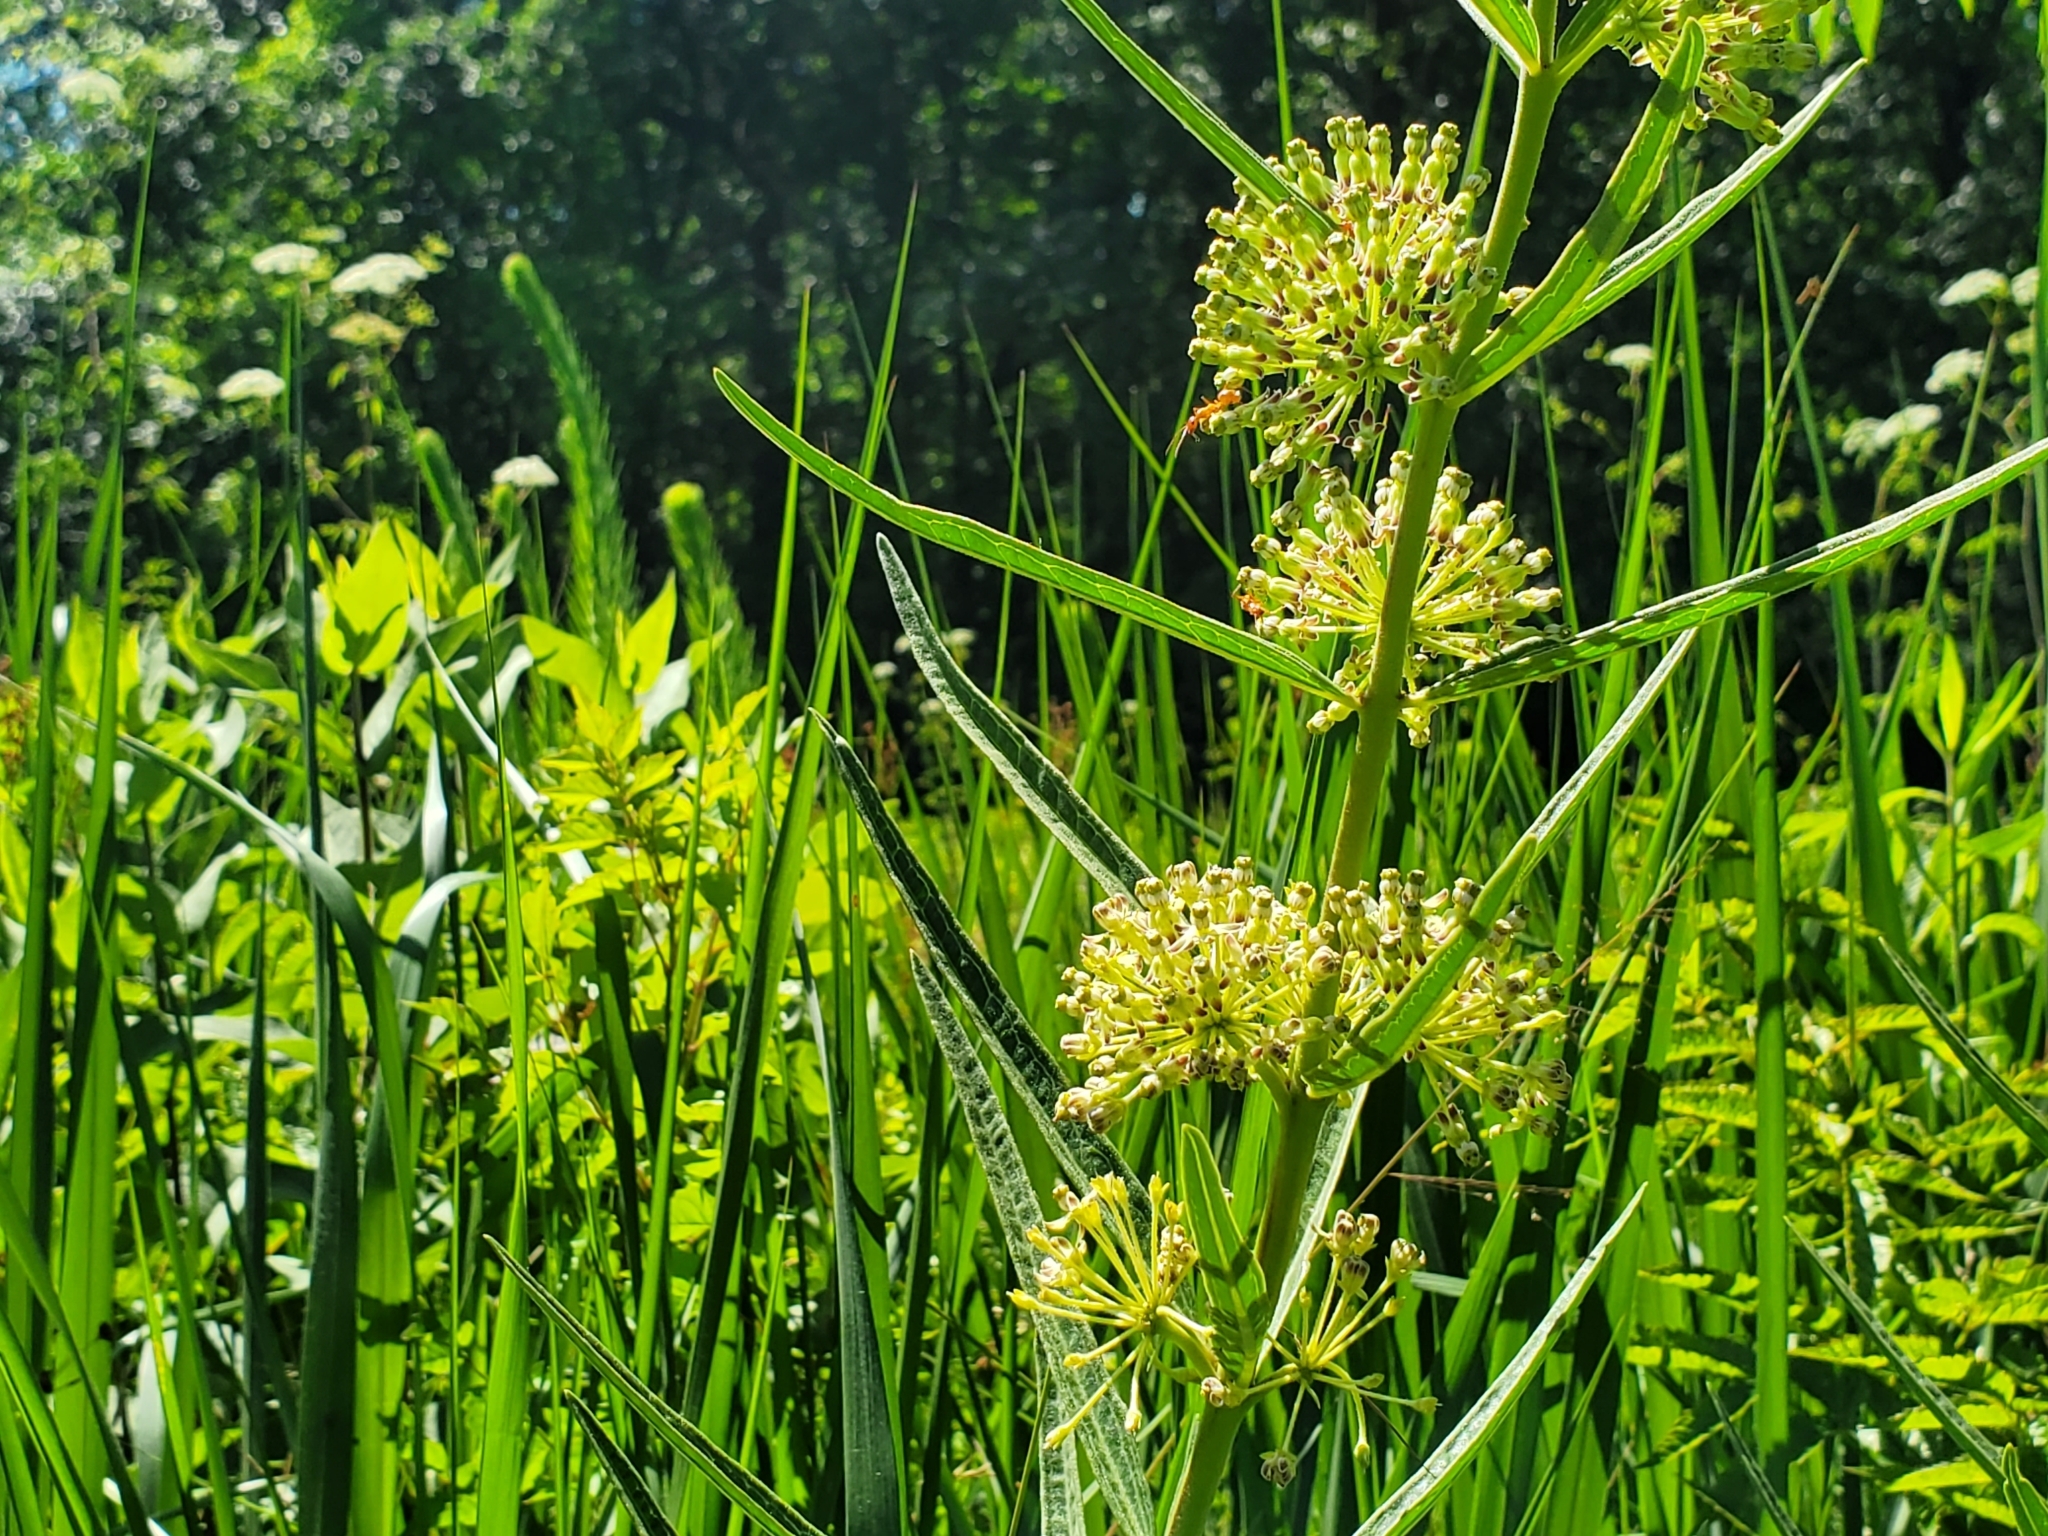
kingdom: Plantae
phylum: Tracheophyta
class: Magnoliopsida
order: Gentianales
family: Apocynaceae
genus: Asclepias
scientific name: Asclepias hirtella
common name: Prairie milkweed
